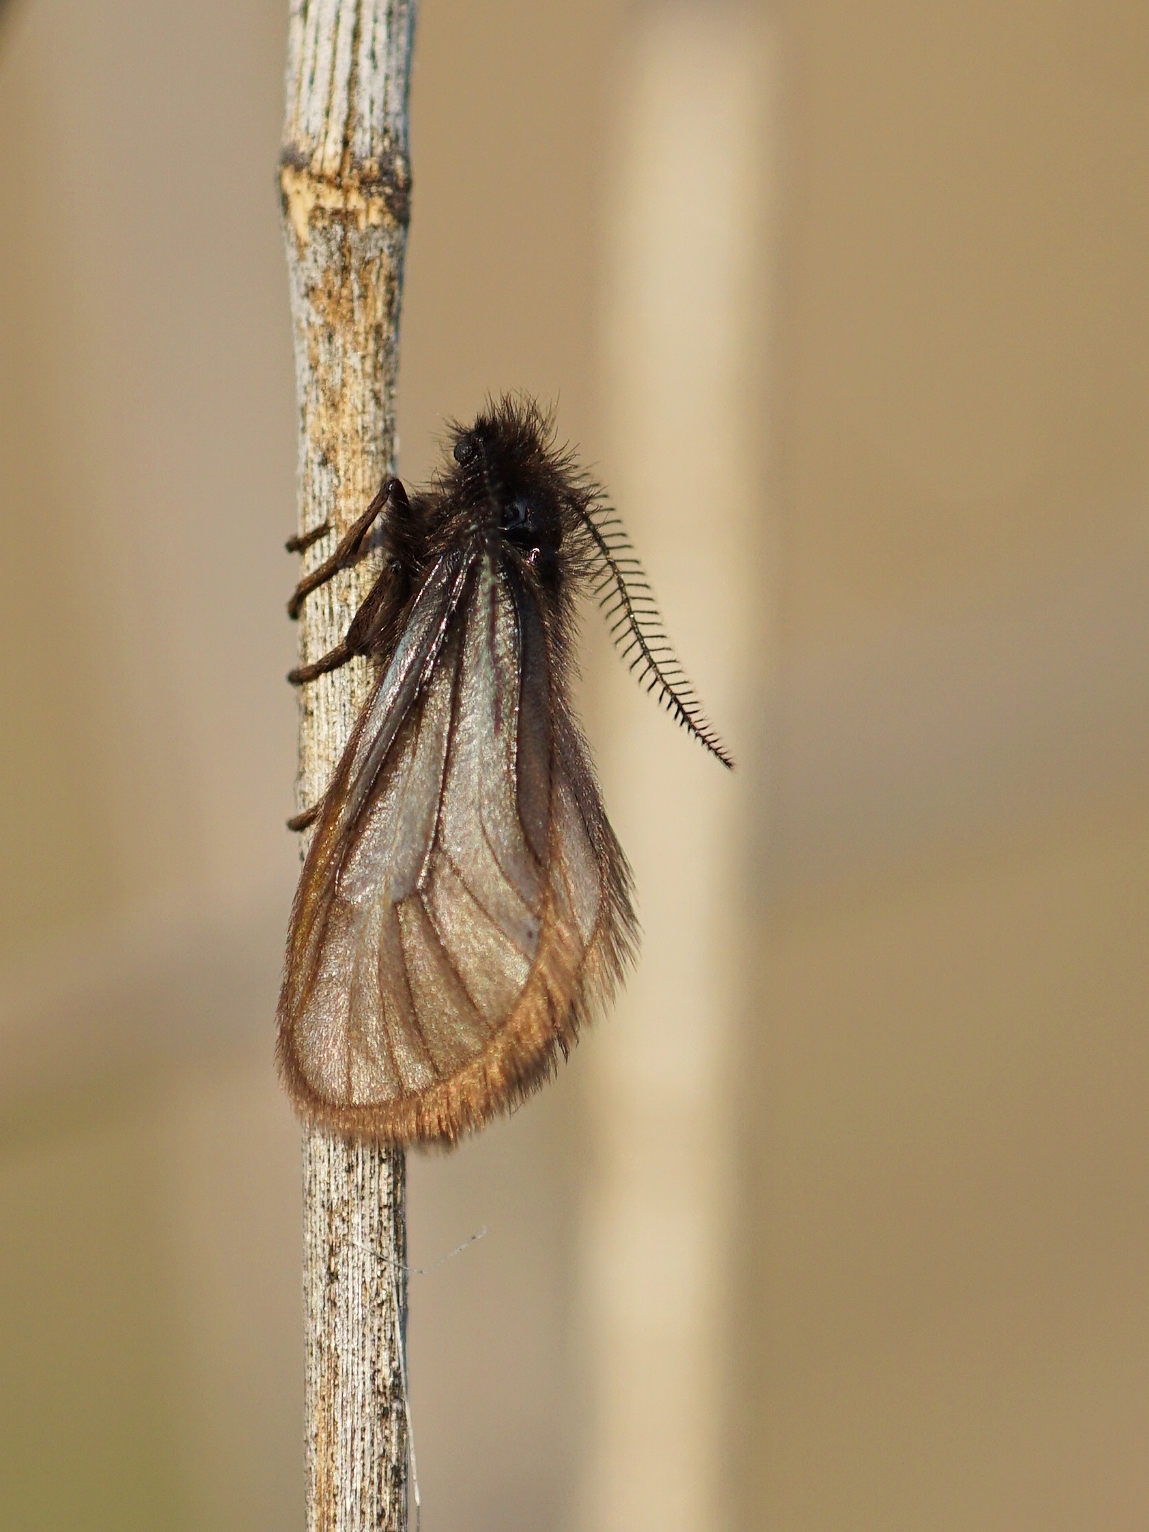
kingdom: Animalia
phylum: Arthropoda
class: Insecta
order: Lepidoptera
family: Heterogynidae
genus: Heterogynis
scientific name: Heterogynis andalusica
